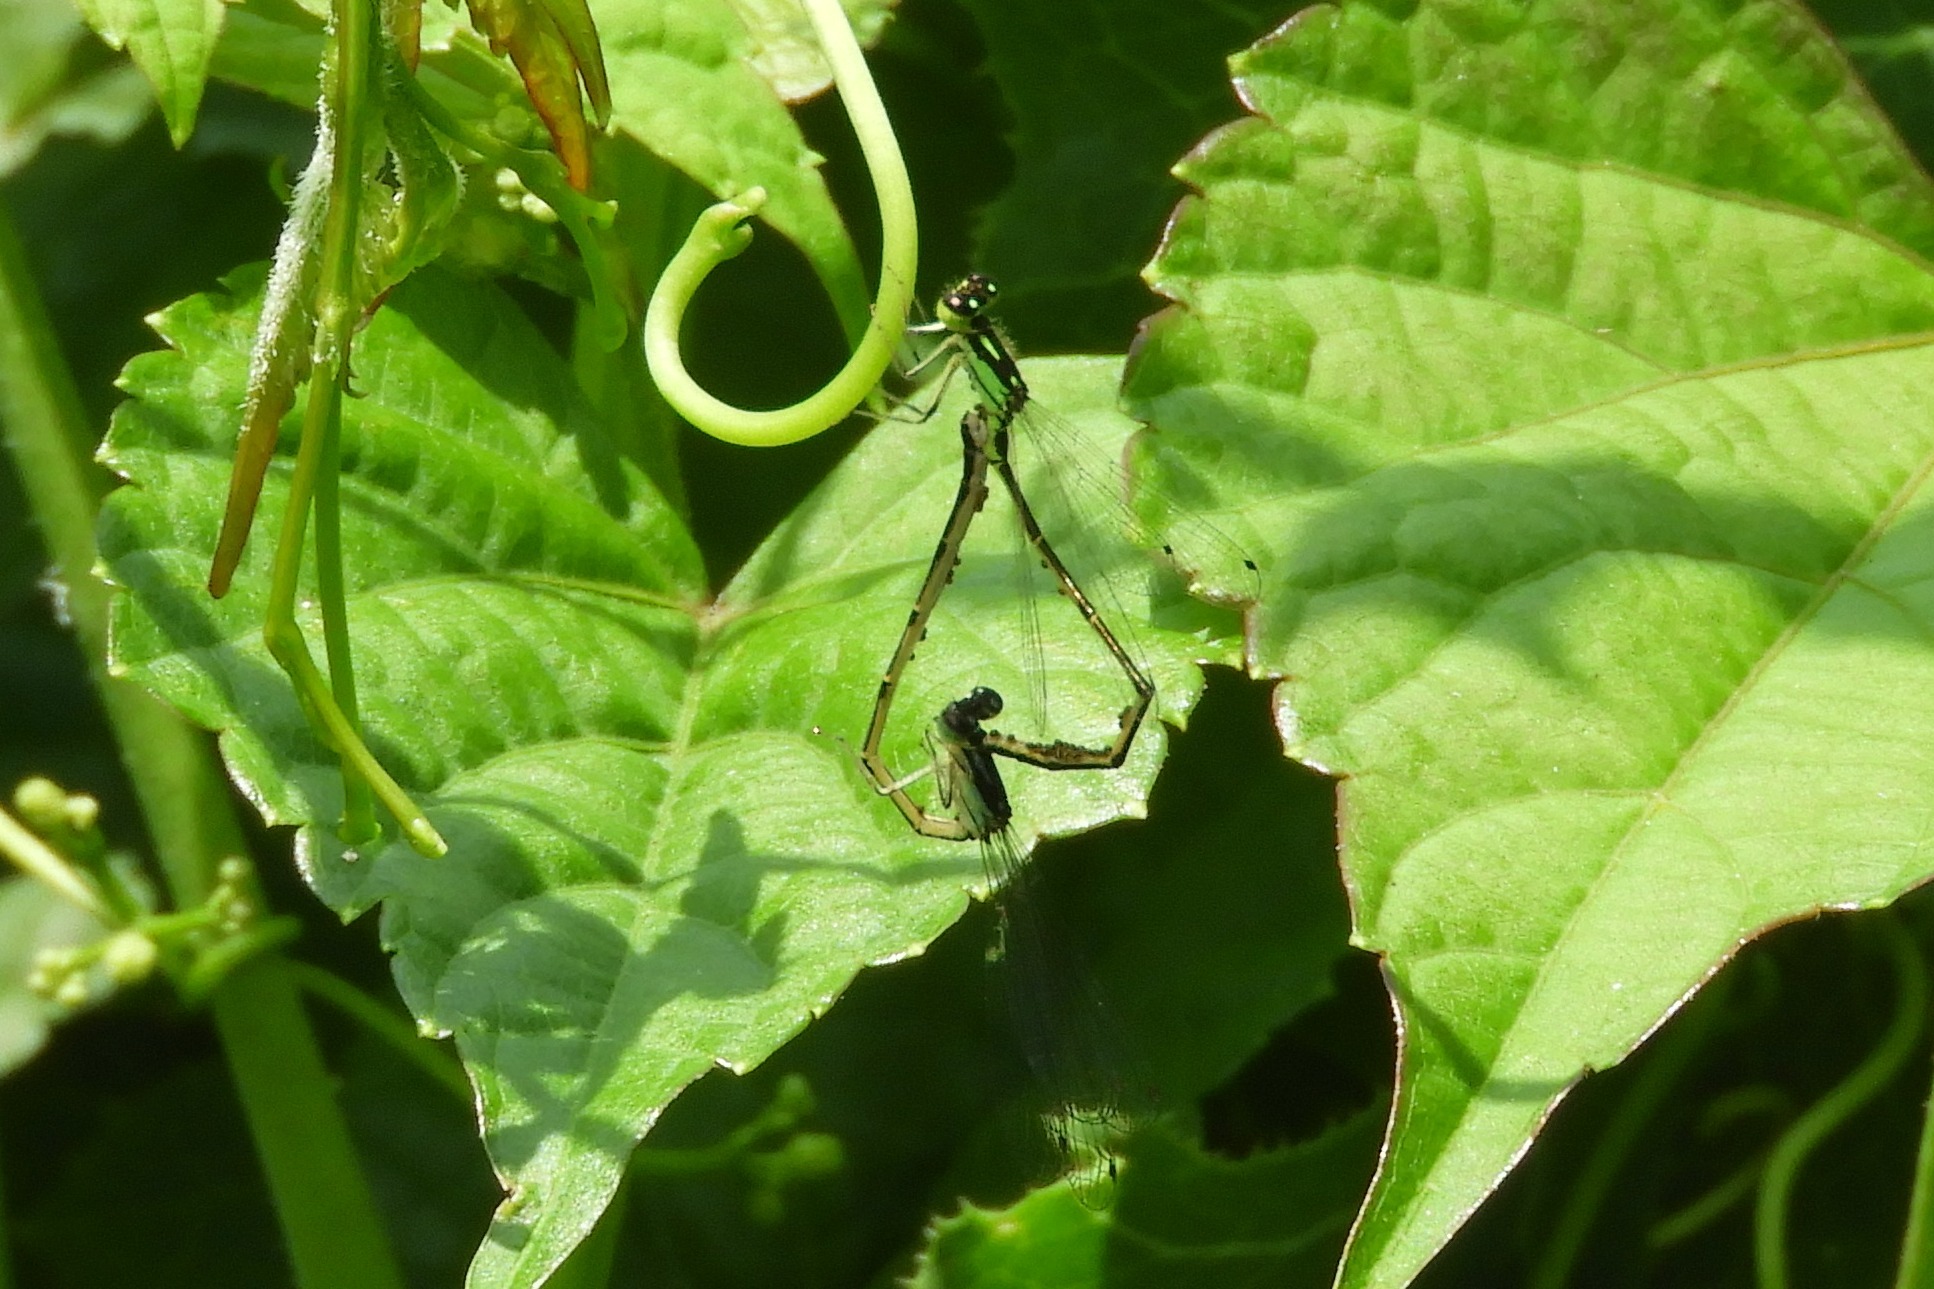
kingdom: Animalia
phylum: Arthropoda
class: Insecta
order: Odonata
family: Coenagrionidae
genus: Ischnura
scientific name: Ischnura posita
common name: Fragile forktail
